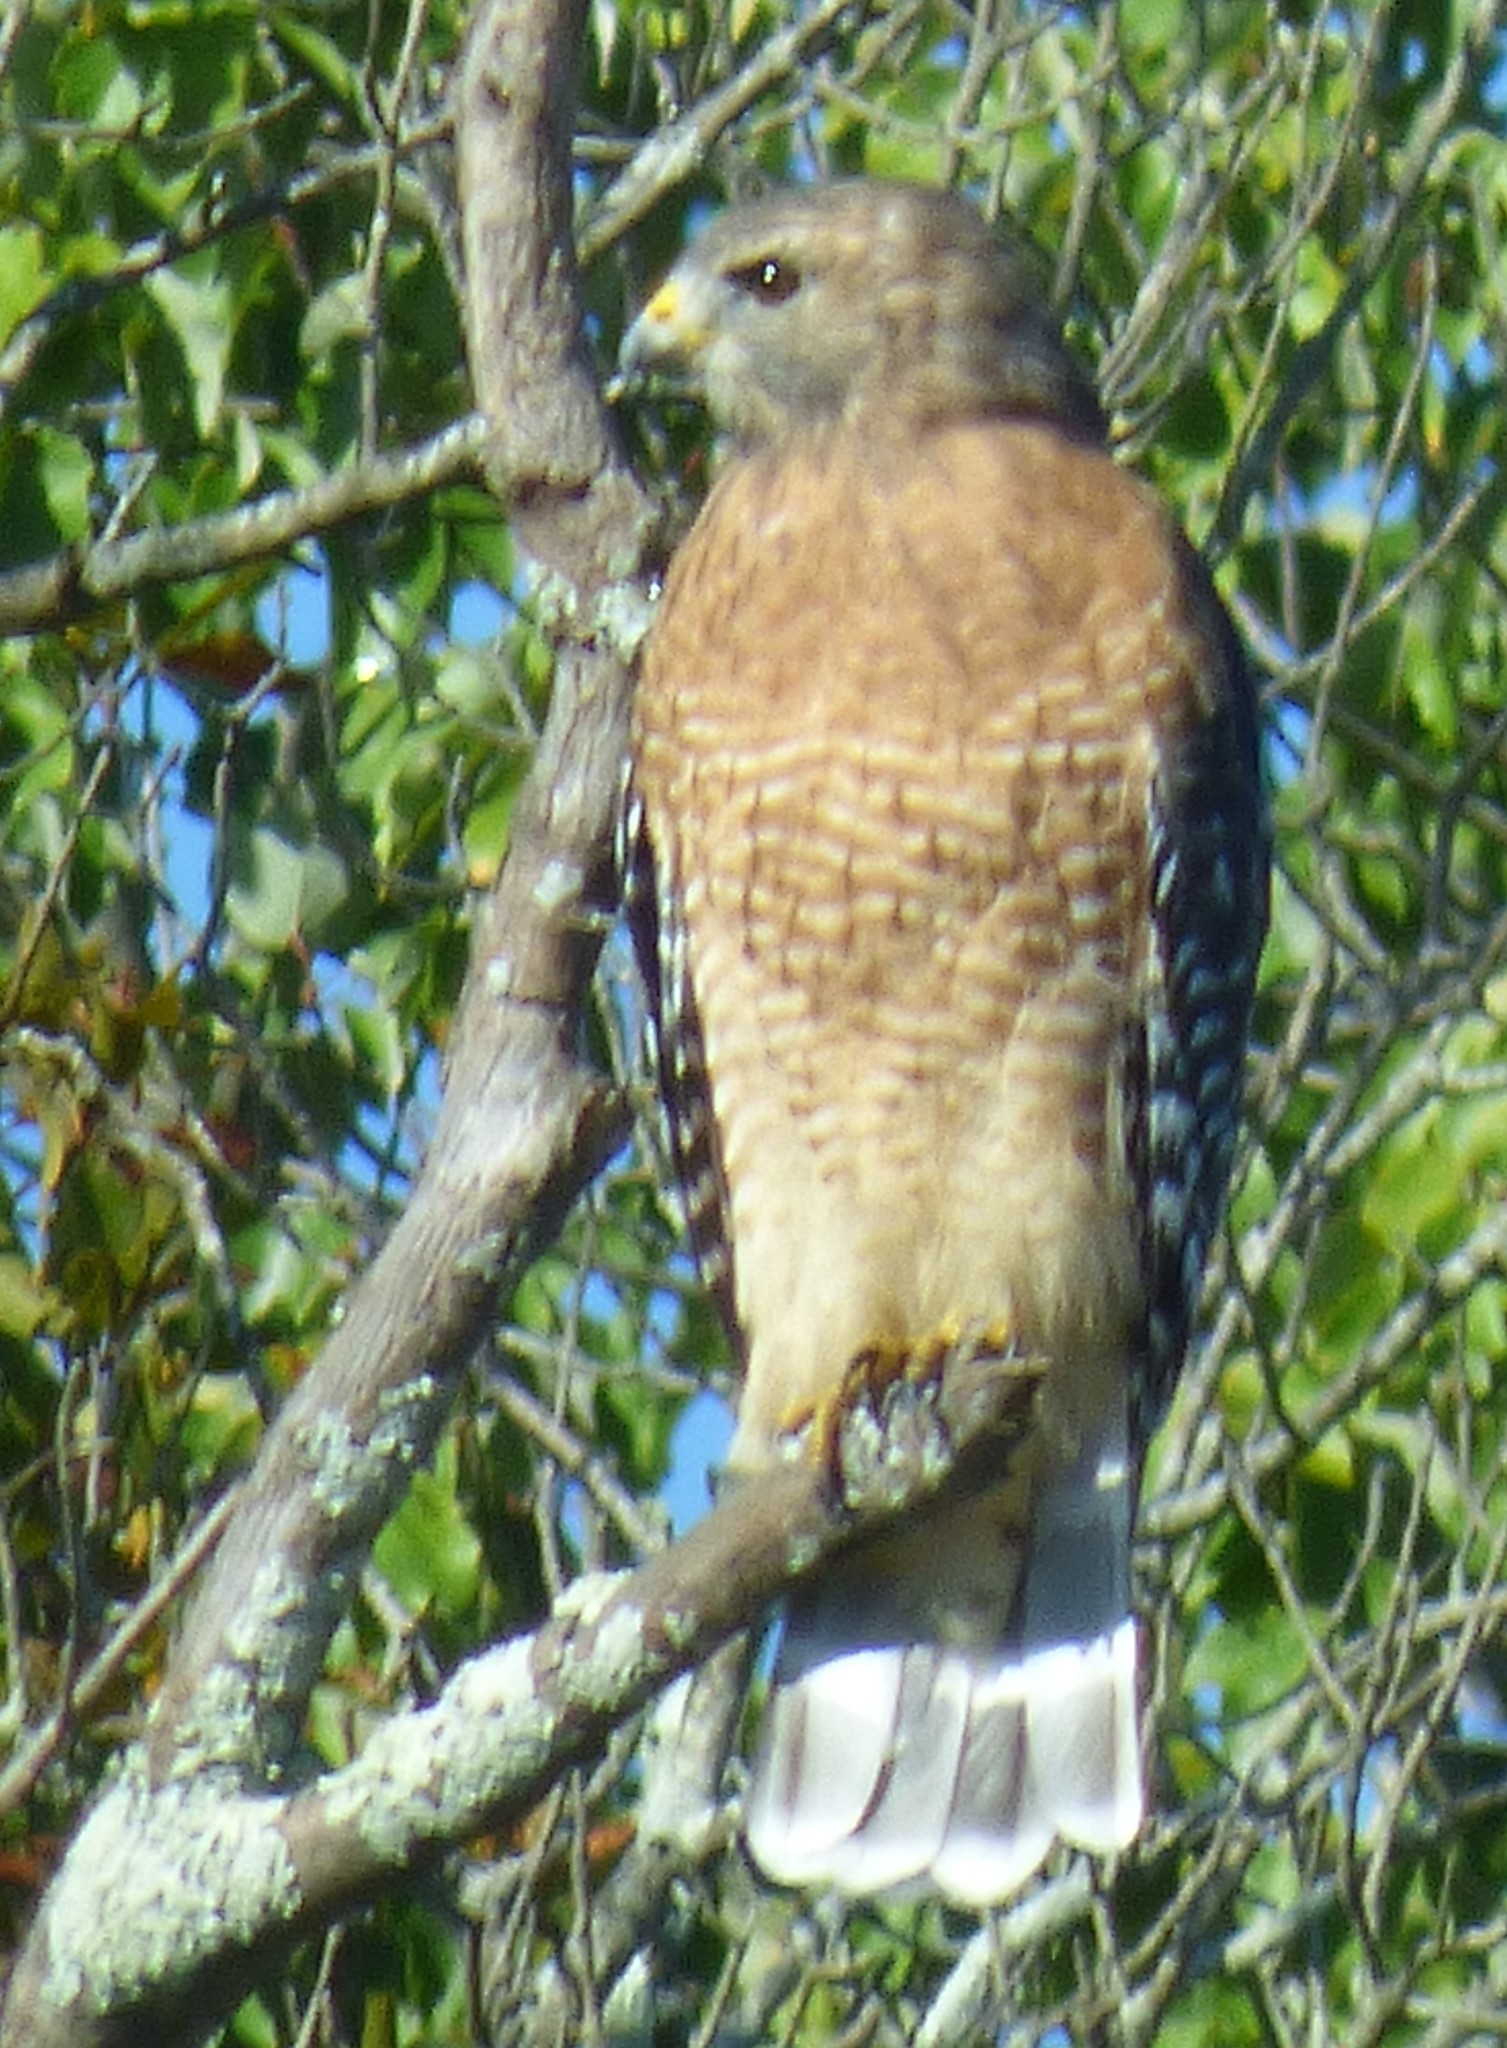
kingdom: Animalia
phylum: Chordata
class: Aves
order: Accipitriformes
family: Accipitridae
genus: Buteo
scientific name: Buteo lineatus
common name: Red-shouldered hawk
